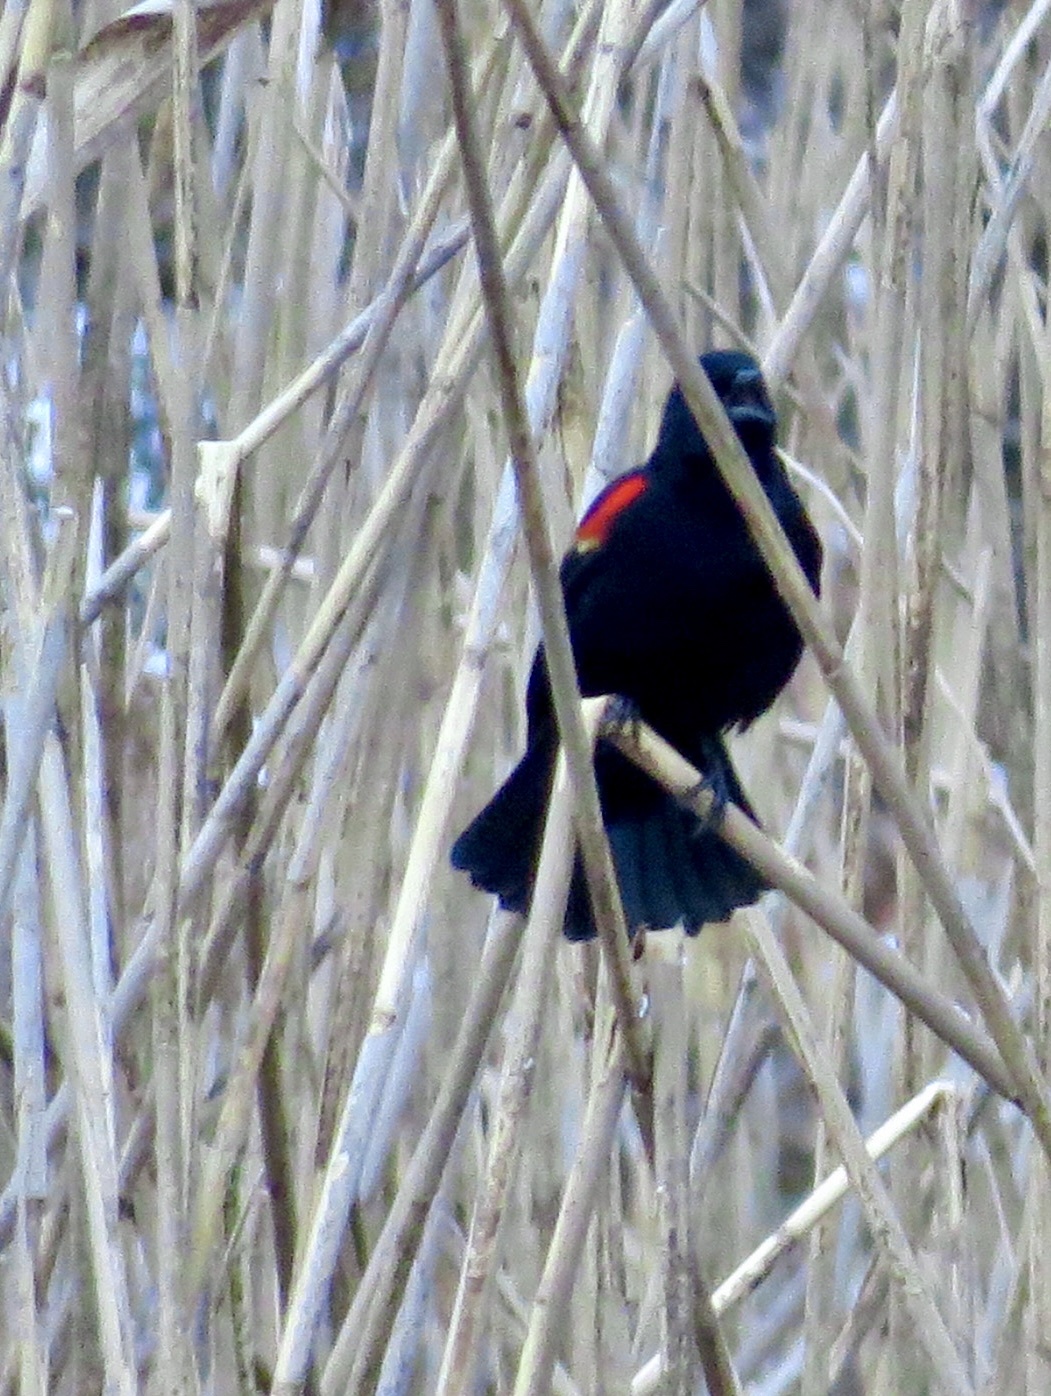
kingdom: Animalia
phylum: Chordata
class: Aves
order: Passeriformes
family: Icteridae
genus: Agelaius
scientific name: Agelaius phoeniceus
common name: Red-winged blackbird
